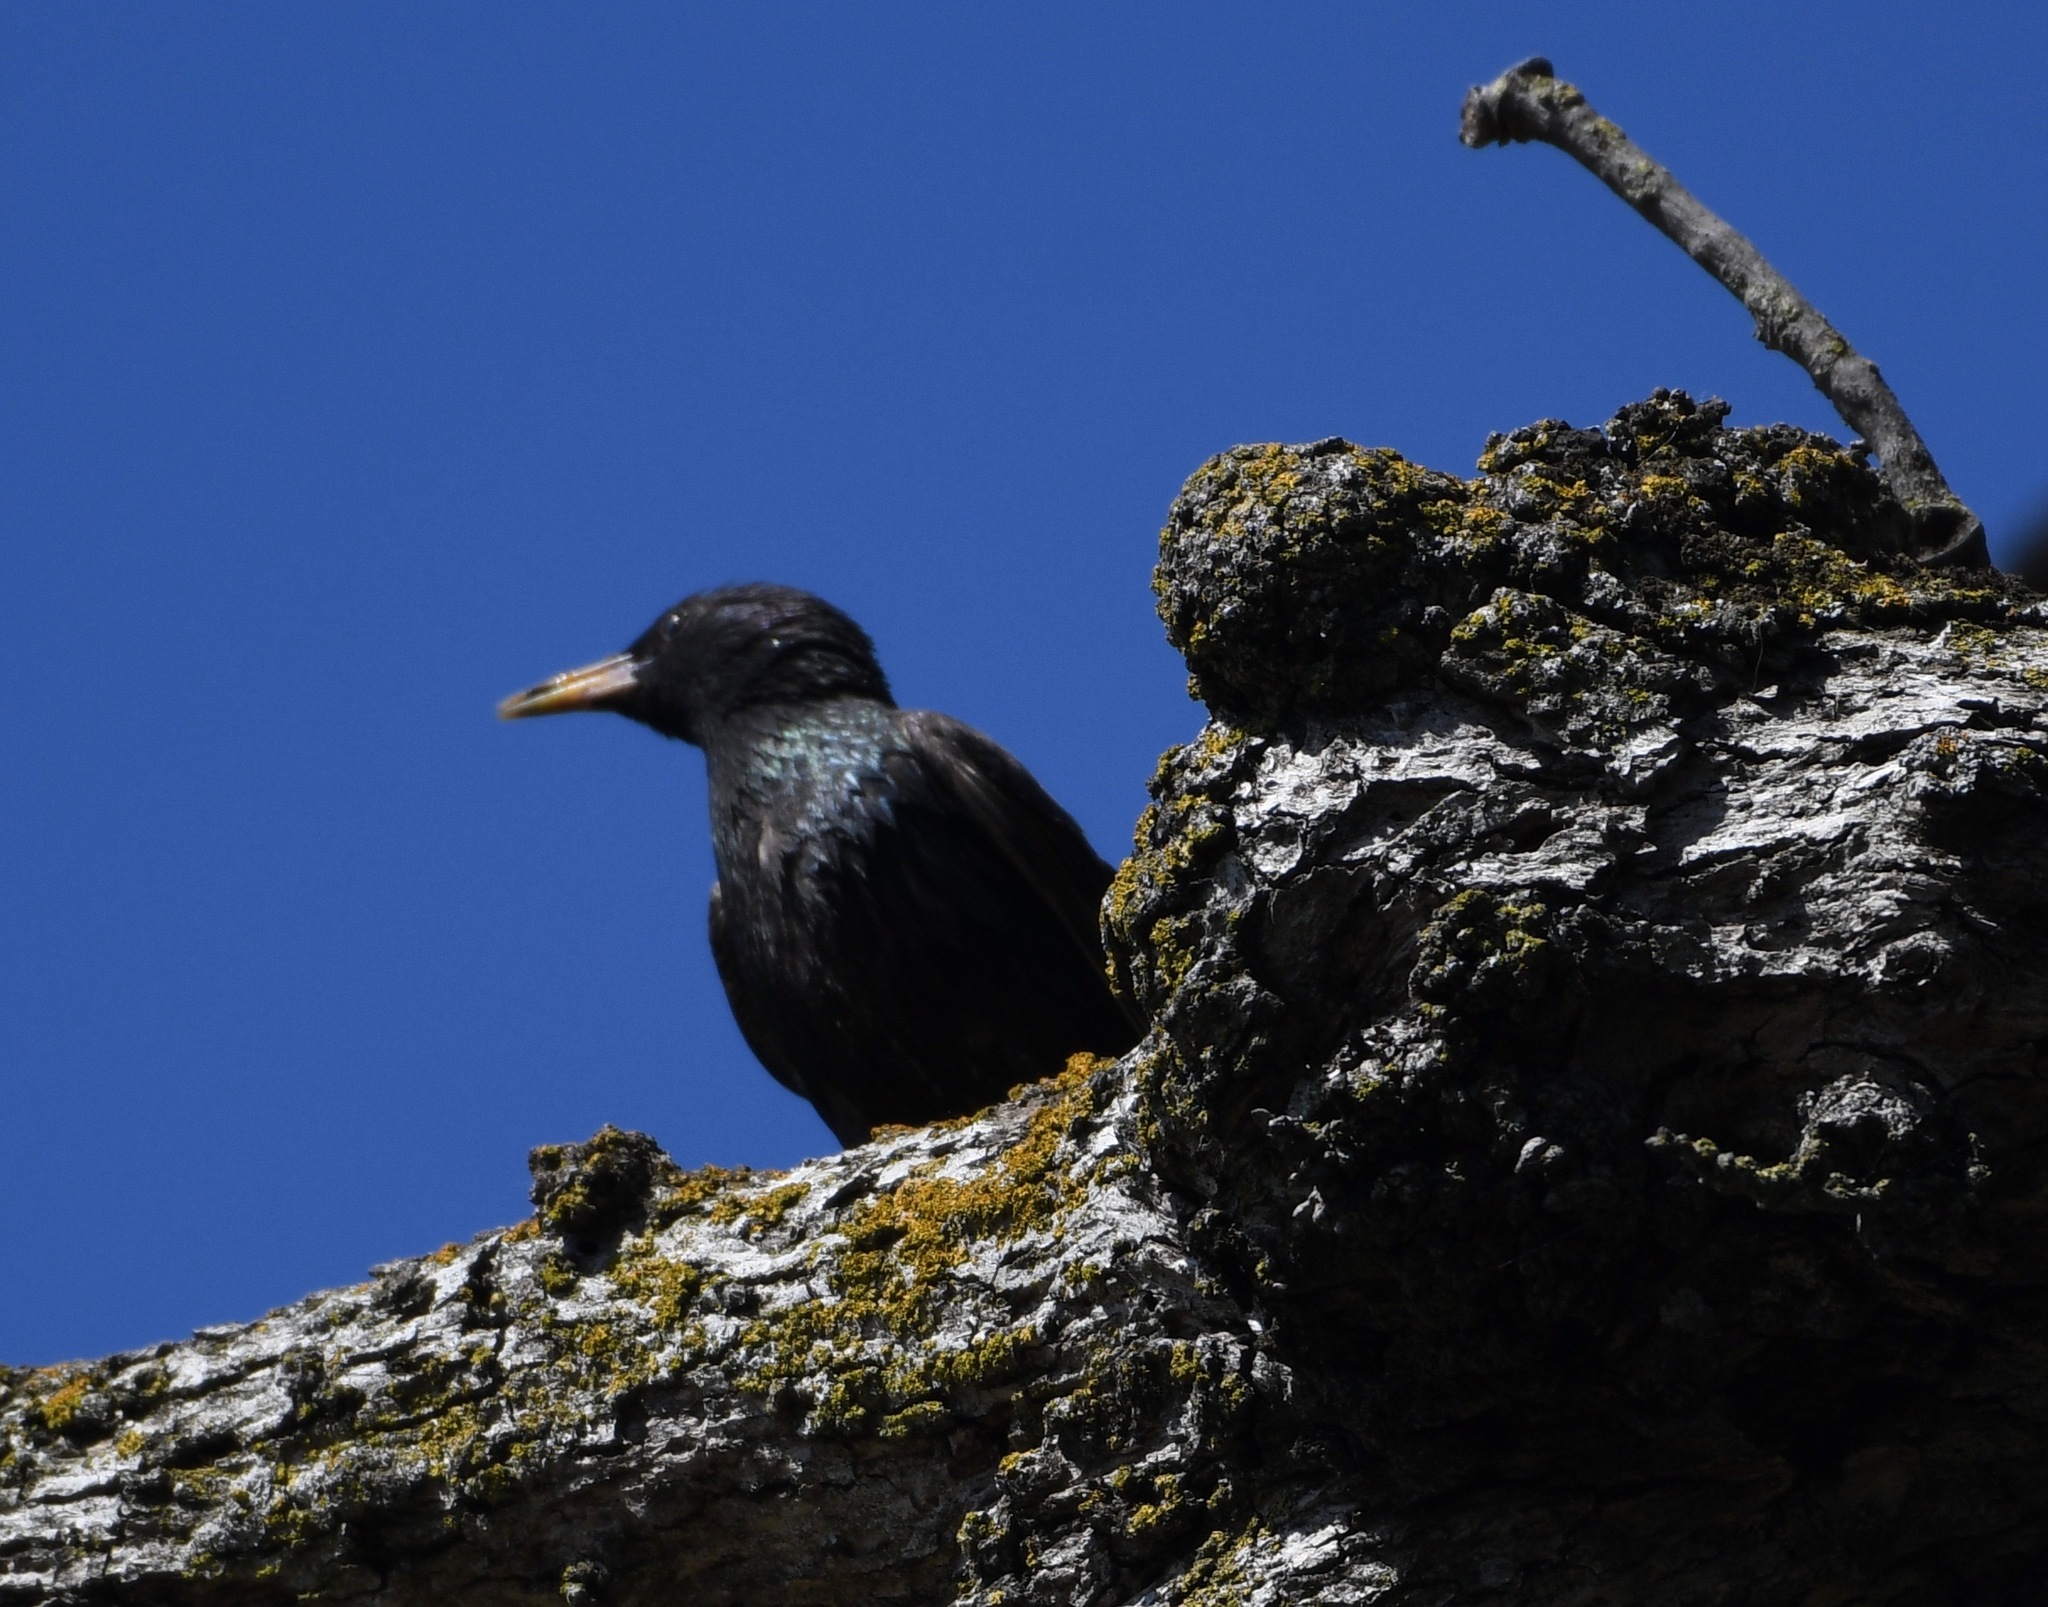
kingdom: Animalia
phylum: Chordata
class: Aves
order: Passeriformes
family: Sturnidae
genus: Sturnus
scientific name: Sturnus vulgaris
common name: Common starling
